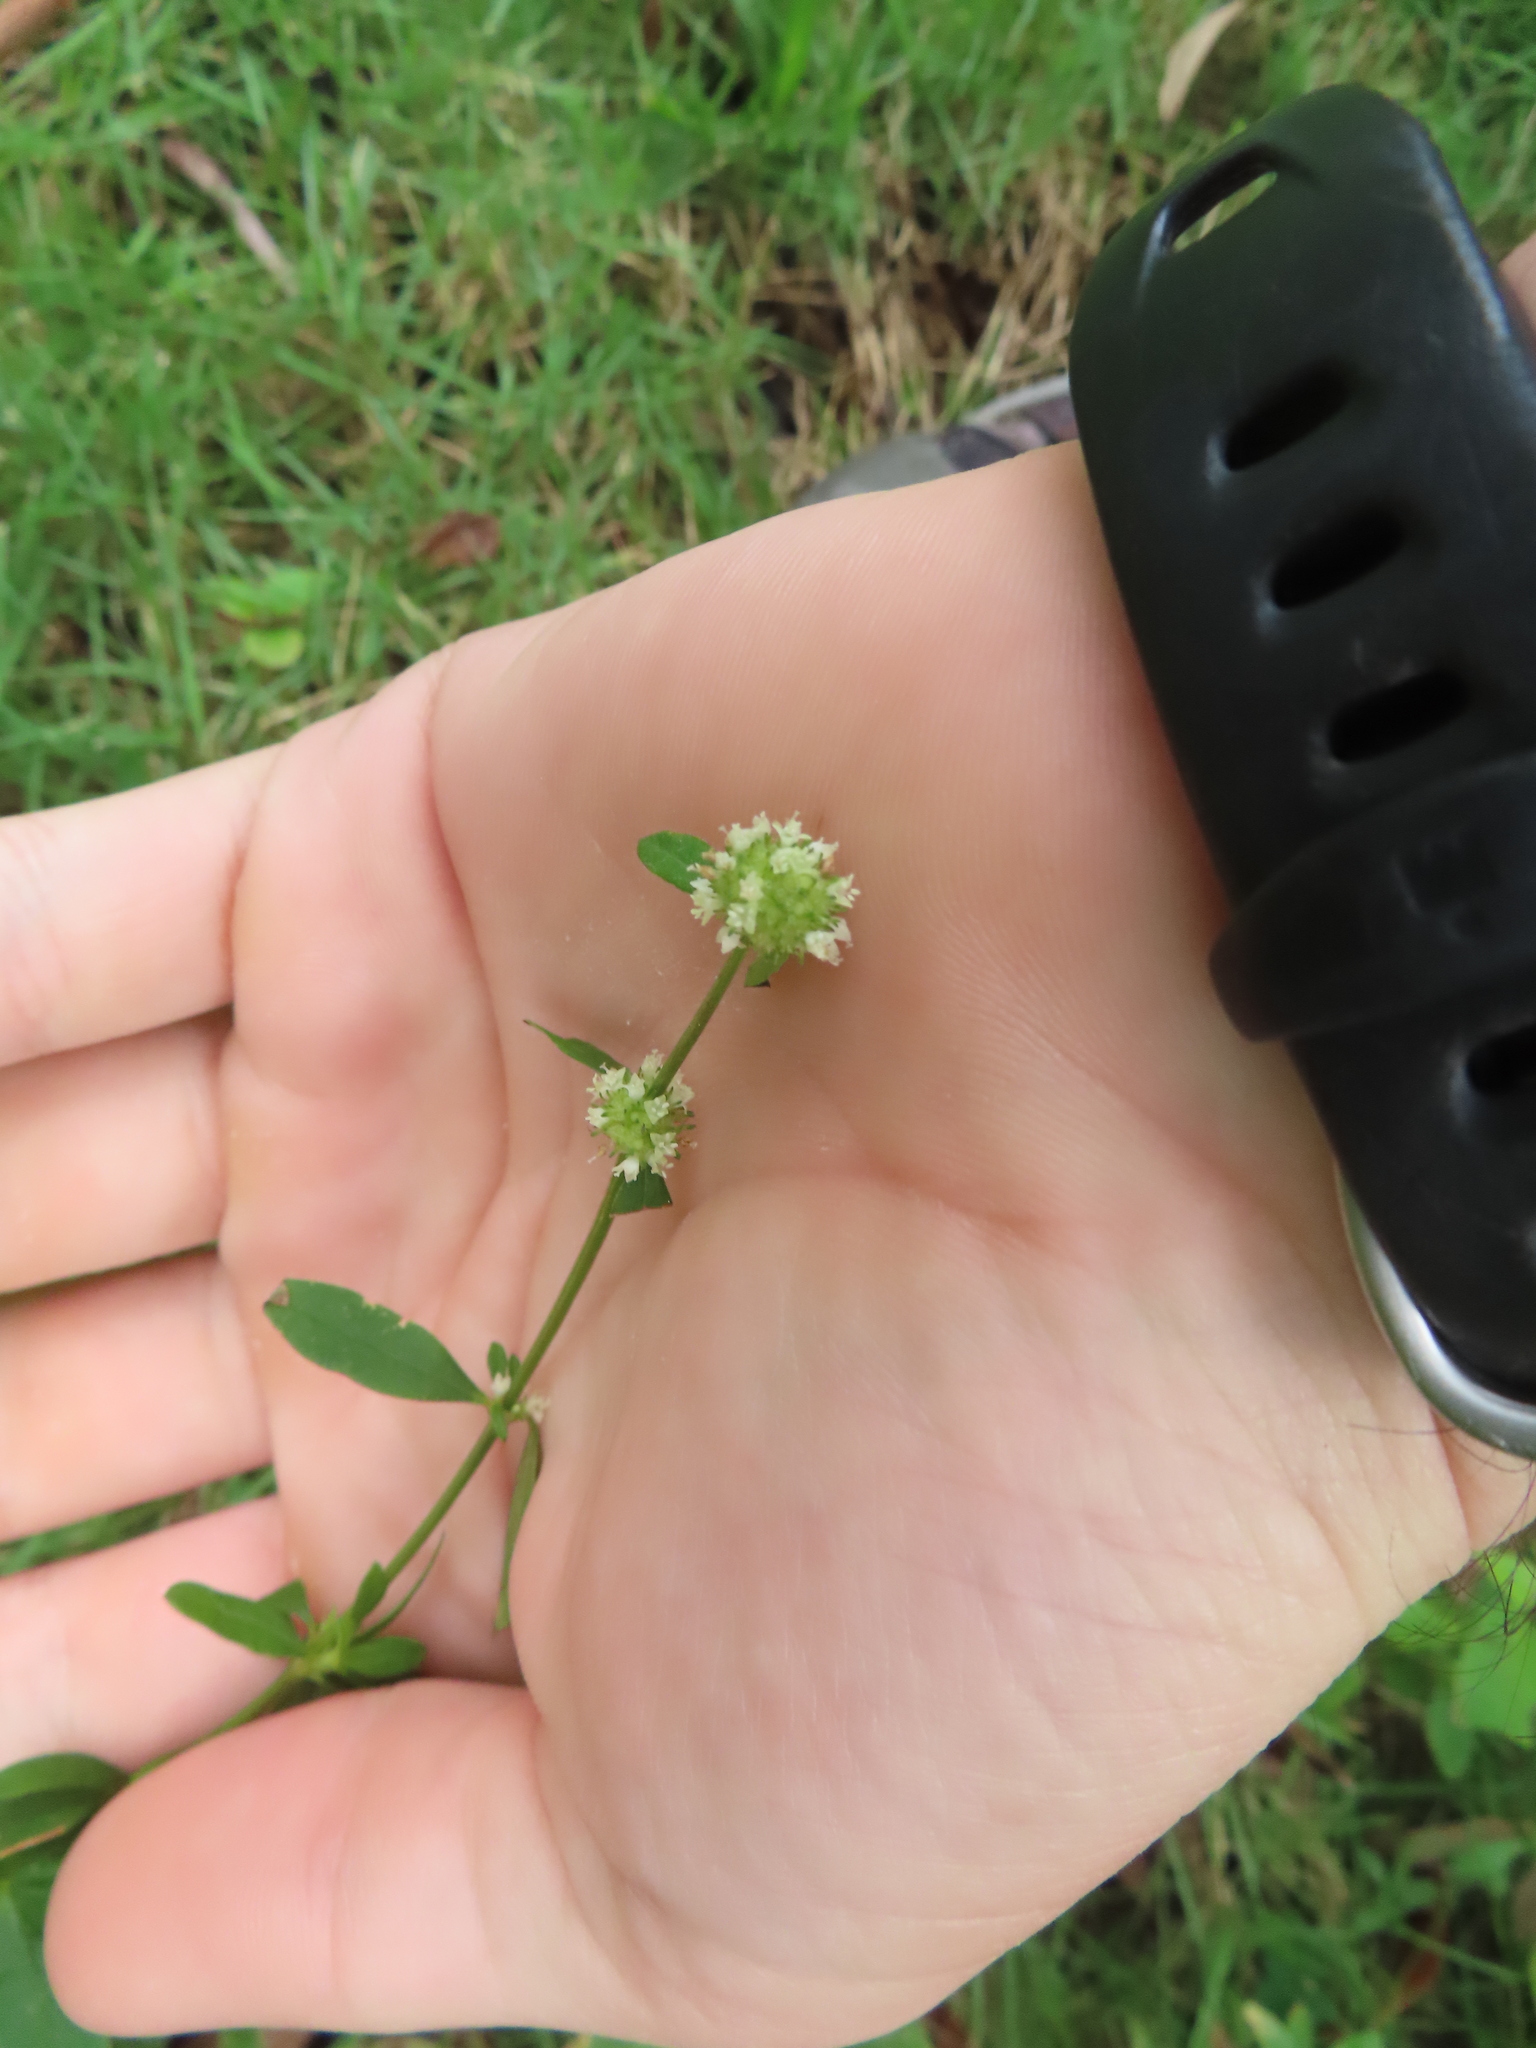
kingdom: Plantae
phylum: Tracheophyta
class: Magnoliopsida
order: Gentianales
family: Rubiaceae
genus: Spermacoce
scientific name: Spermacoce verticillata
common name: Shrubby false buttonweed
